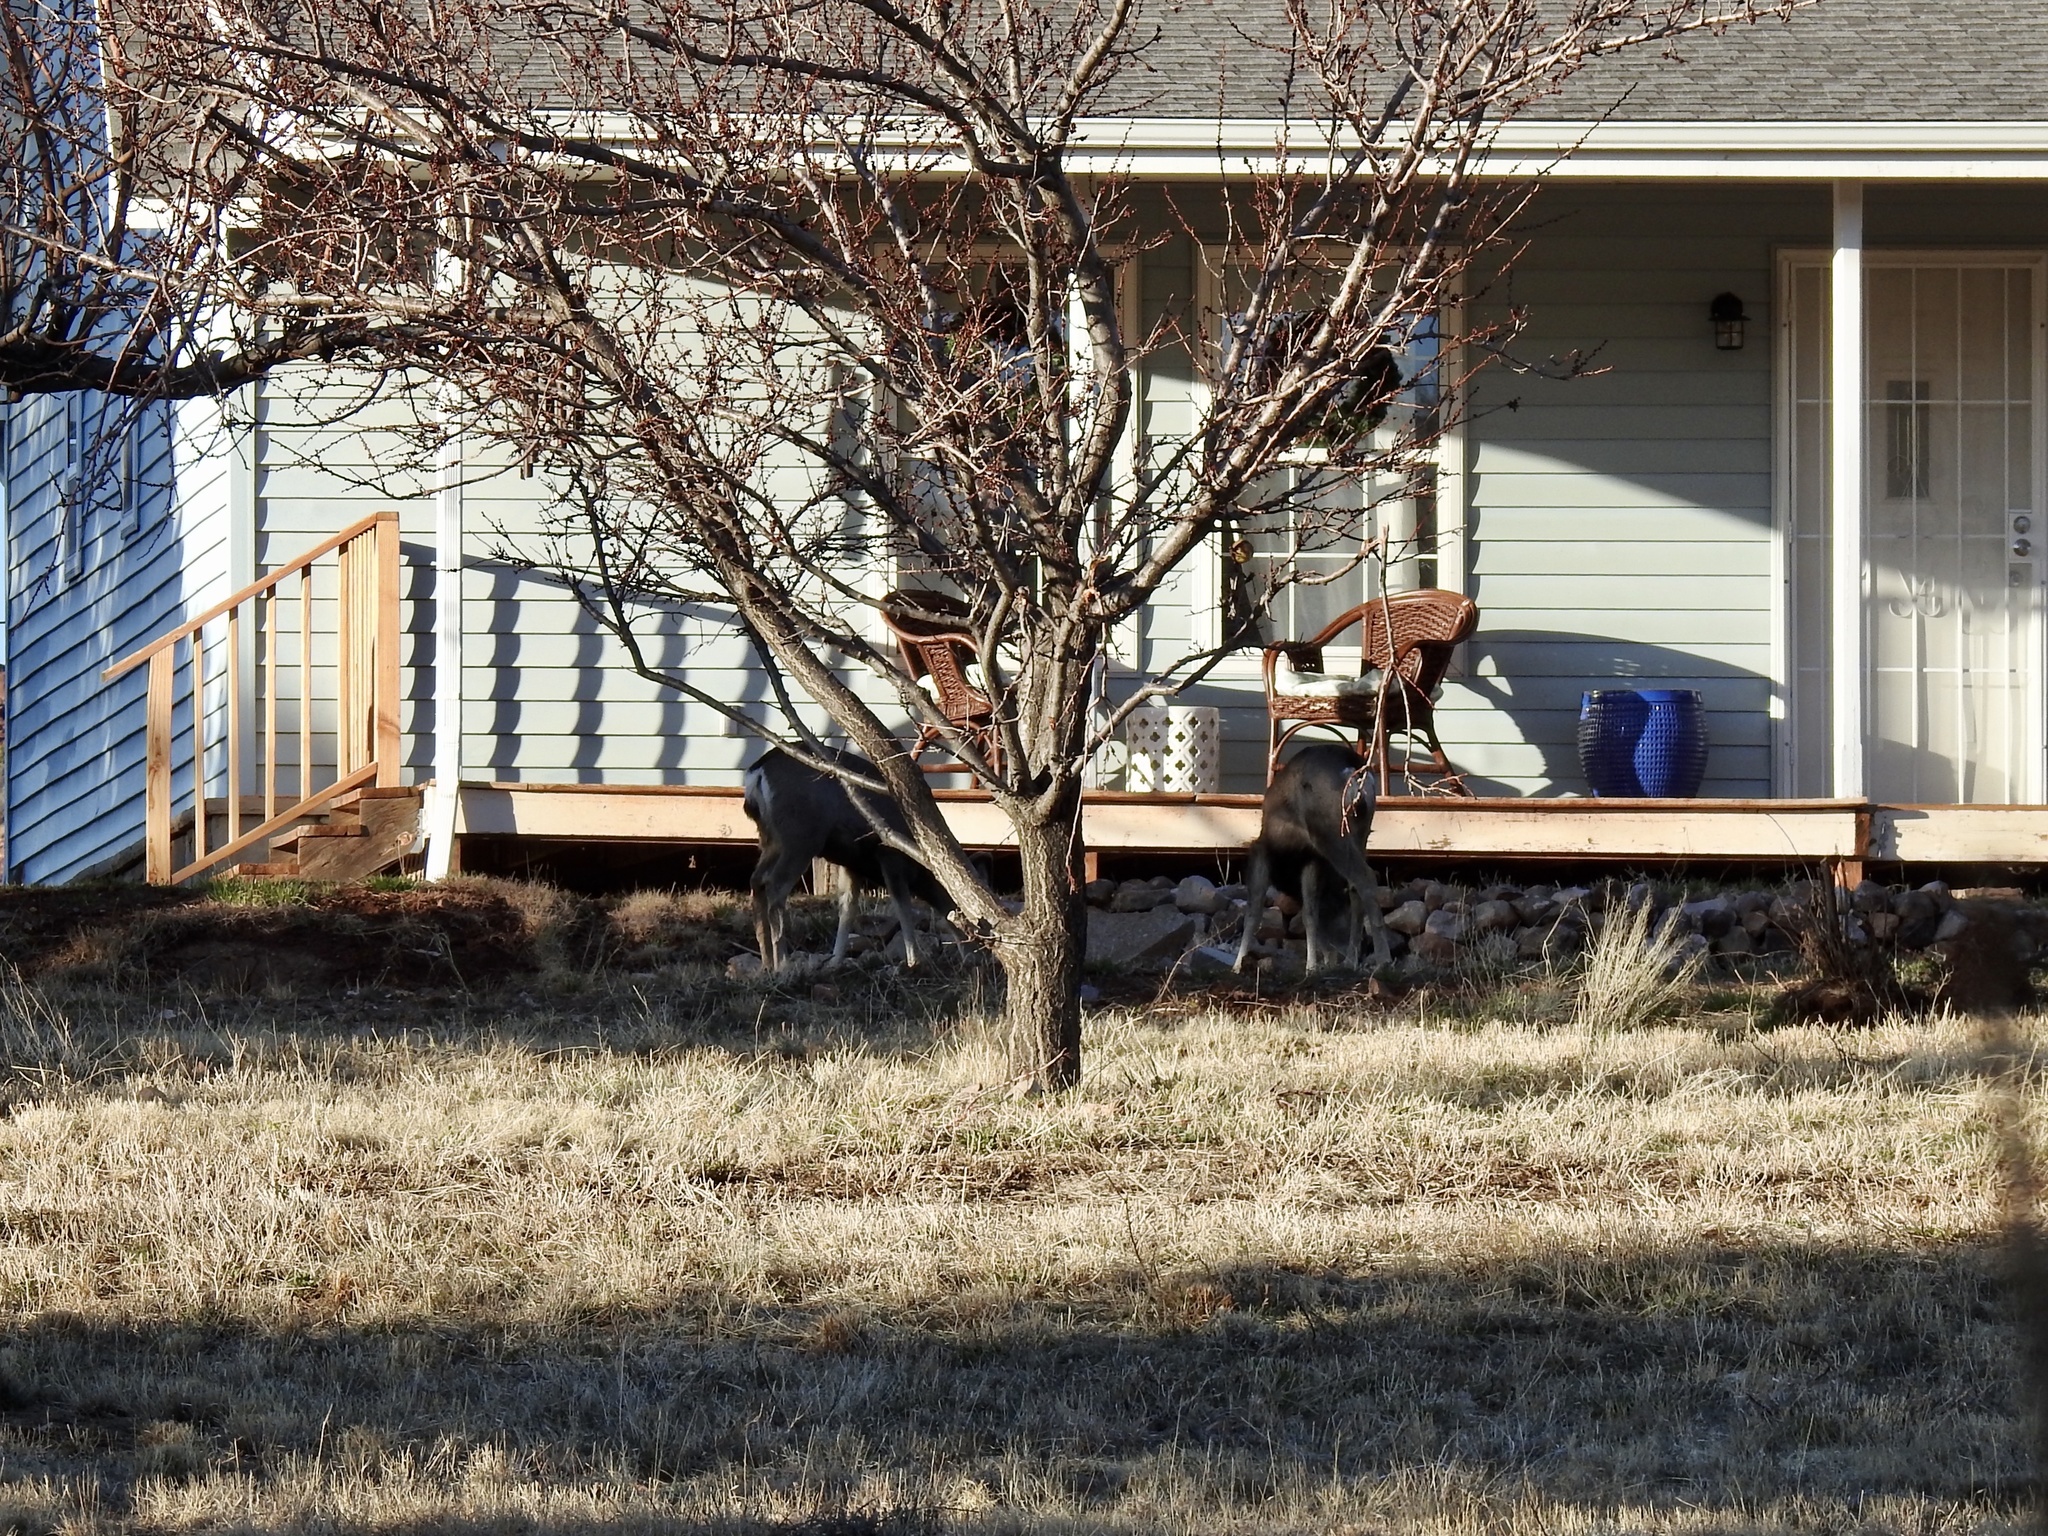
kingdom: Animalia
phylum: Chordata
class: Mammalia
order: Artiodactyla
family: Cervidae
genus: Odocoileus
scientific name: Odocoileus hemionus
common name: Mule deer
